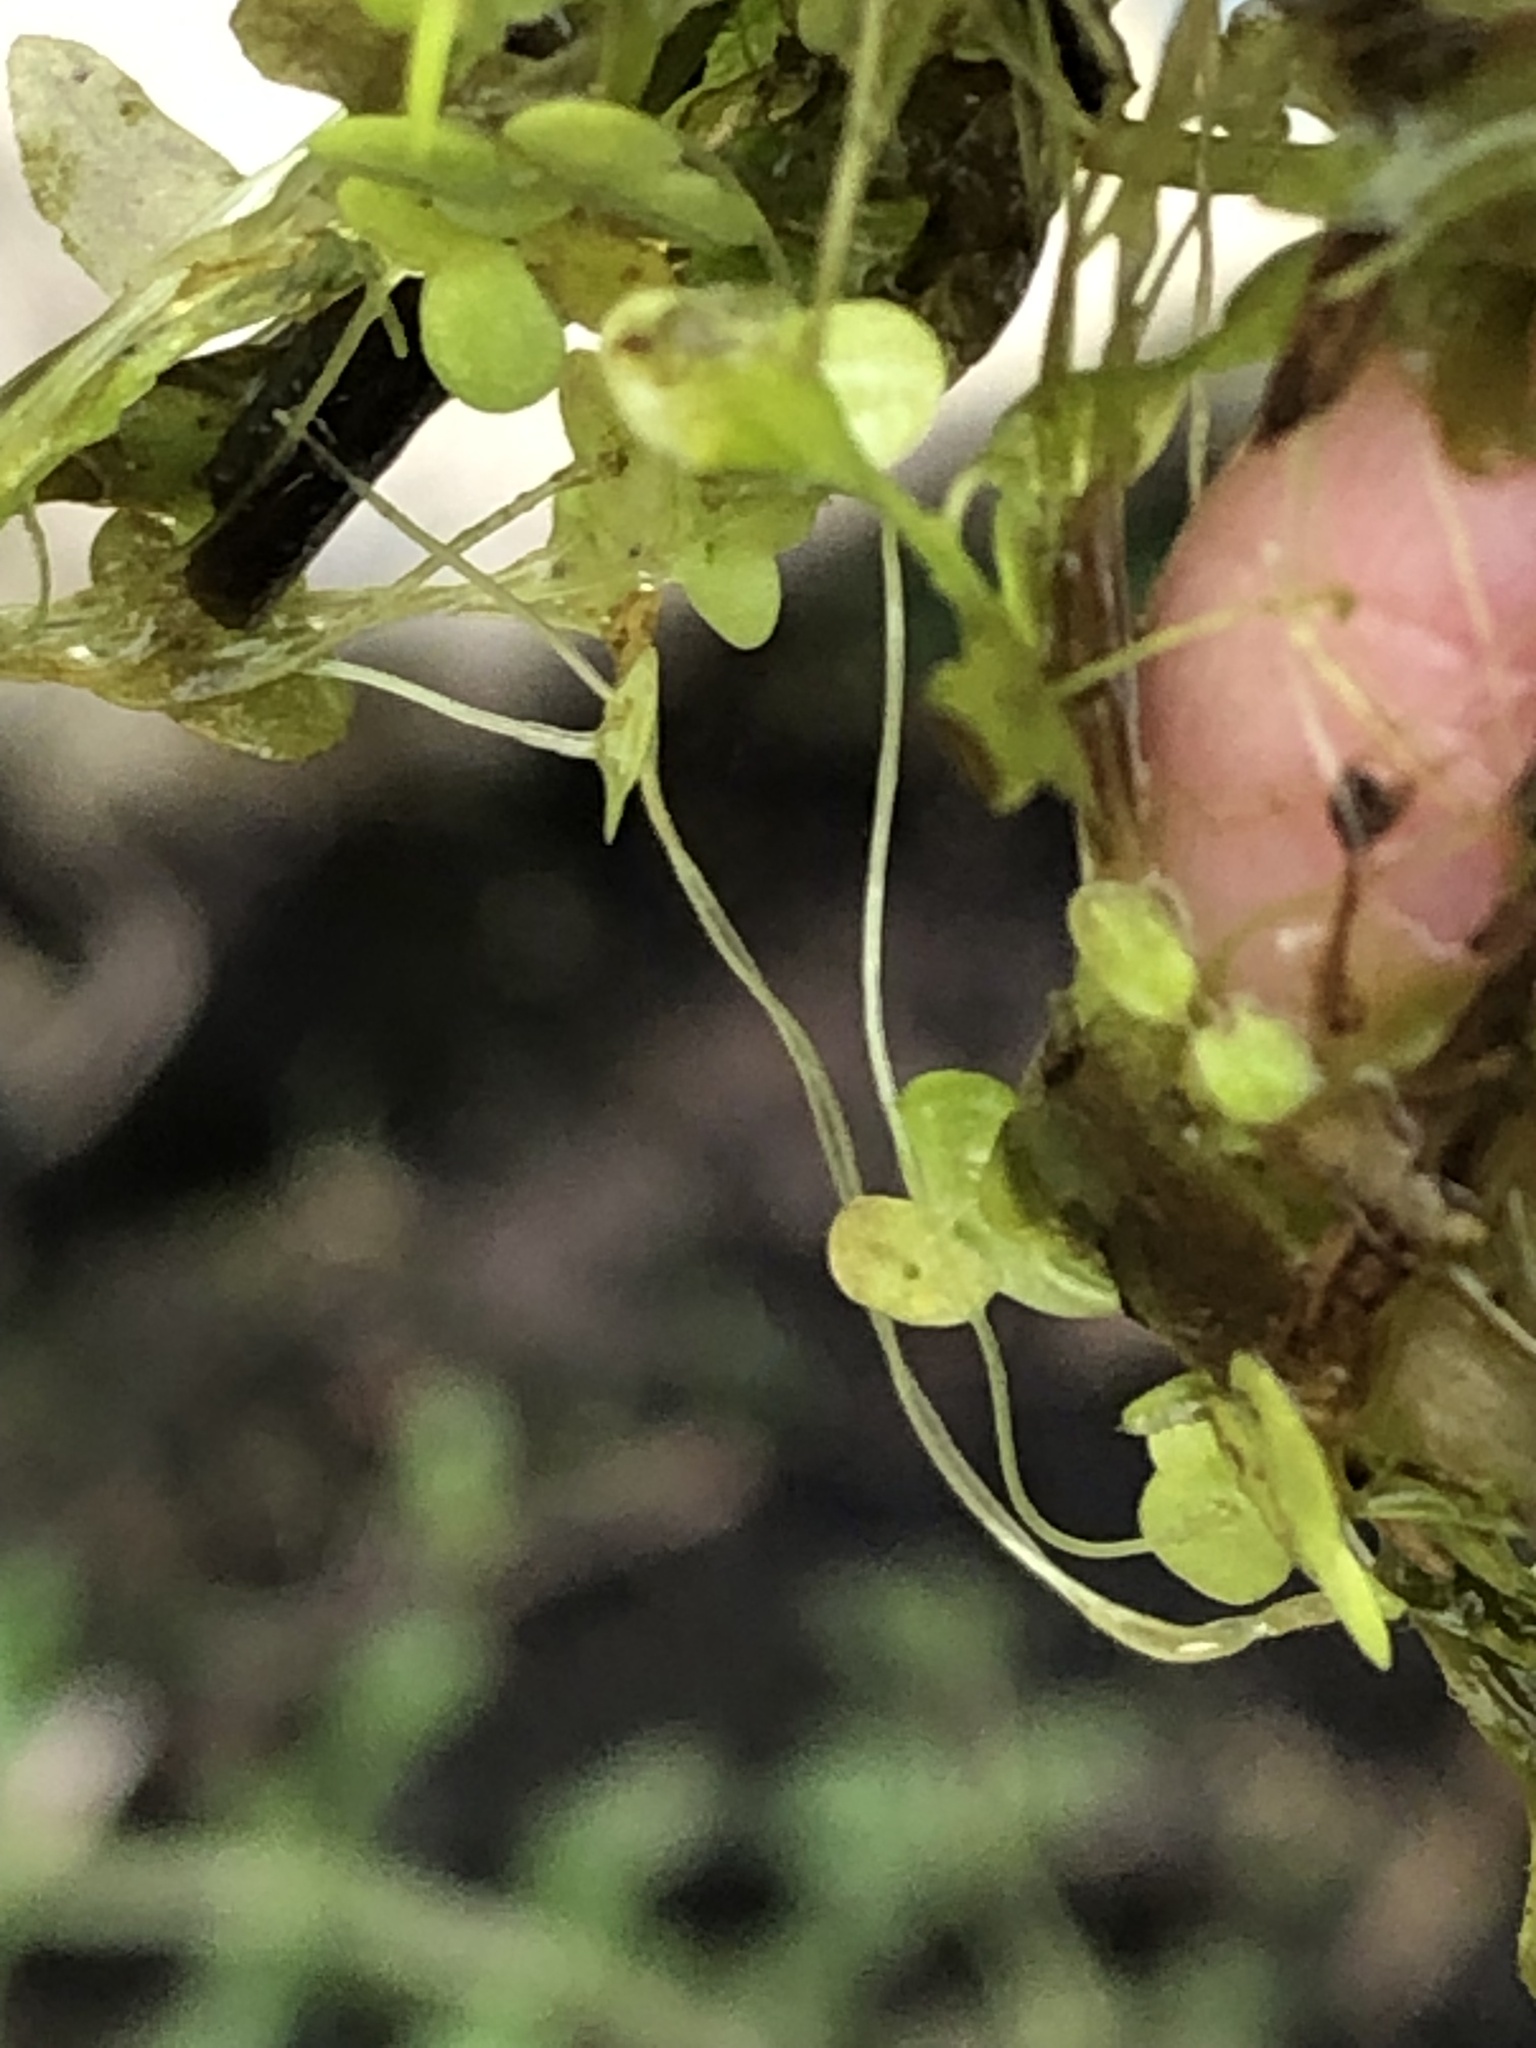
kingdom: Plantae
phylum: Tracheophyta
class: Liliopsida
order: Alismatales
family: Hydrocharitaceae
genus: Hydrocharis
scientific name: Hydrocharis morsus-ranae
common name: Frogbit
